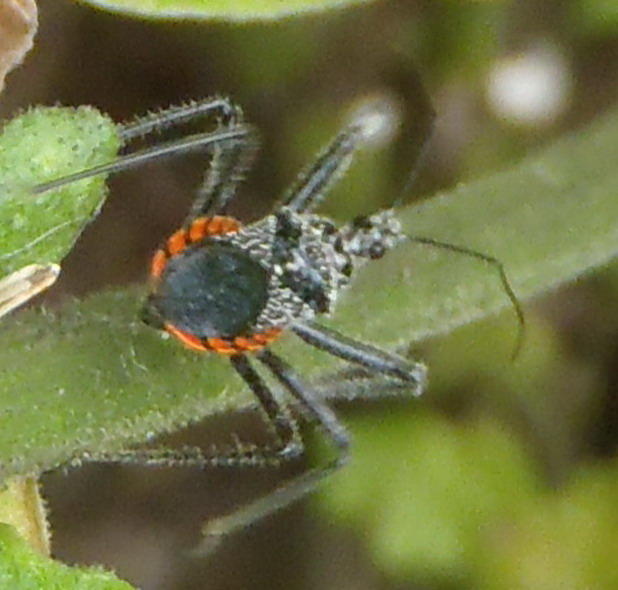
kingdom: Animalia
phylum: Arthropoda
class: Insecta
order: Hemiptera
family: Reduviidae
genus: Rhynocoris
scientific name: Rhynocoris tristis
